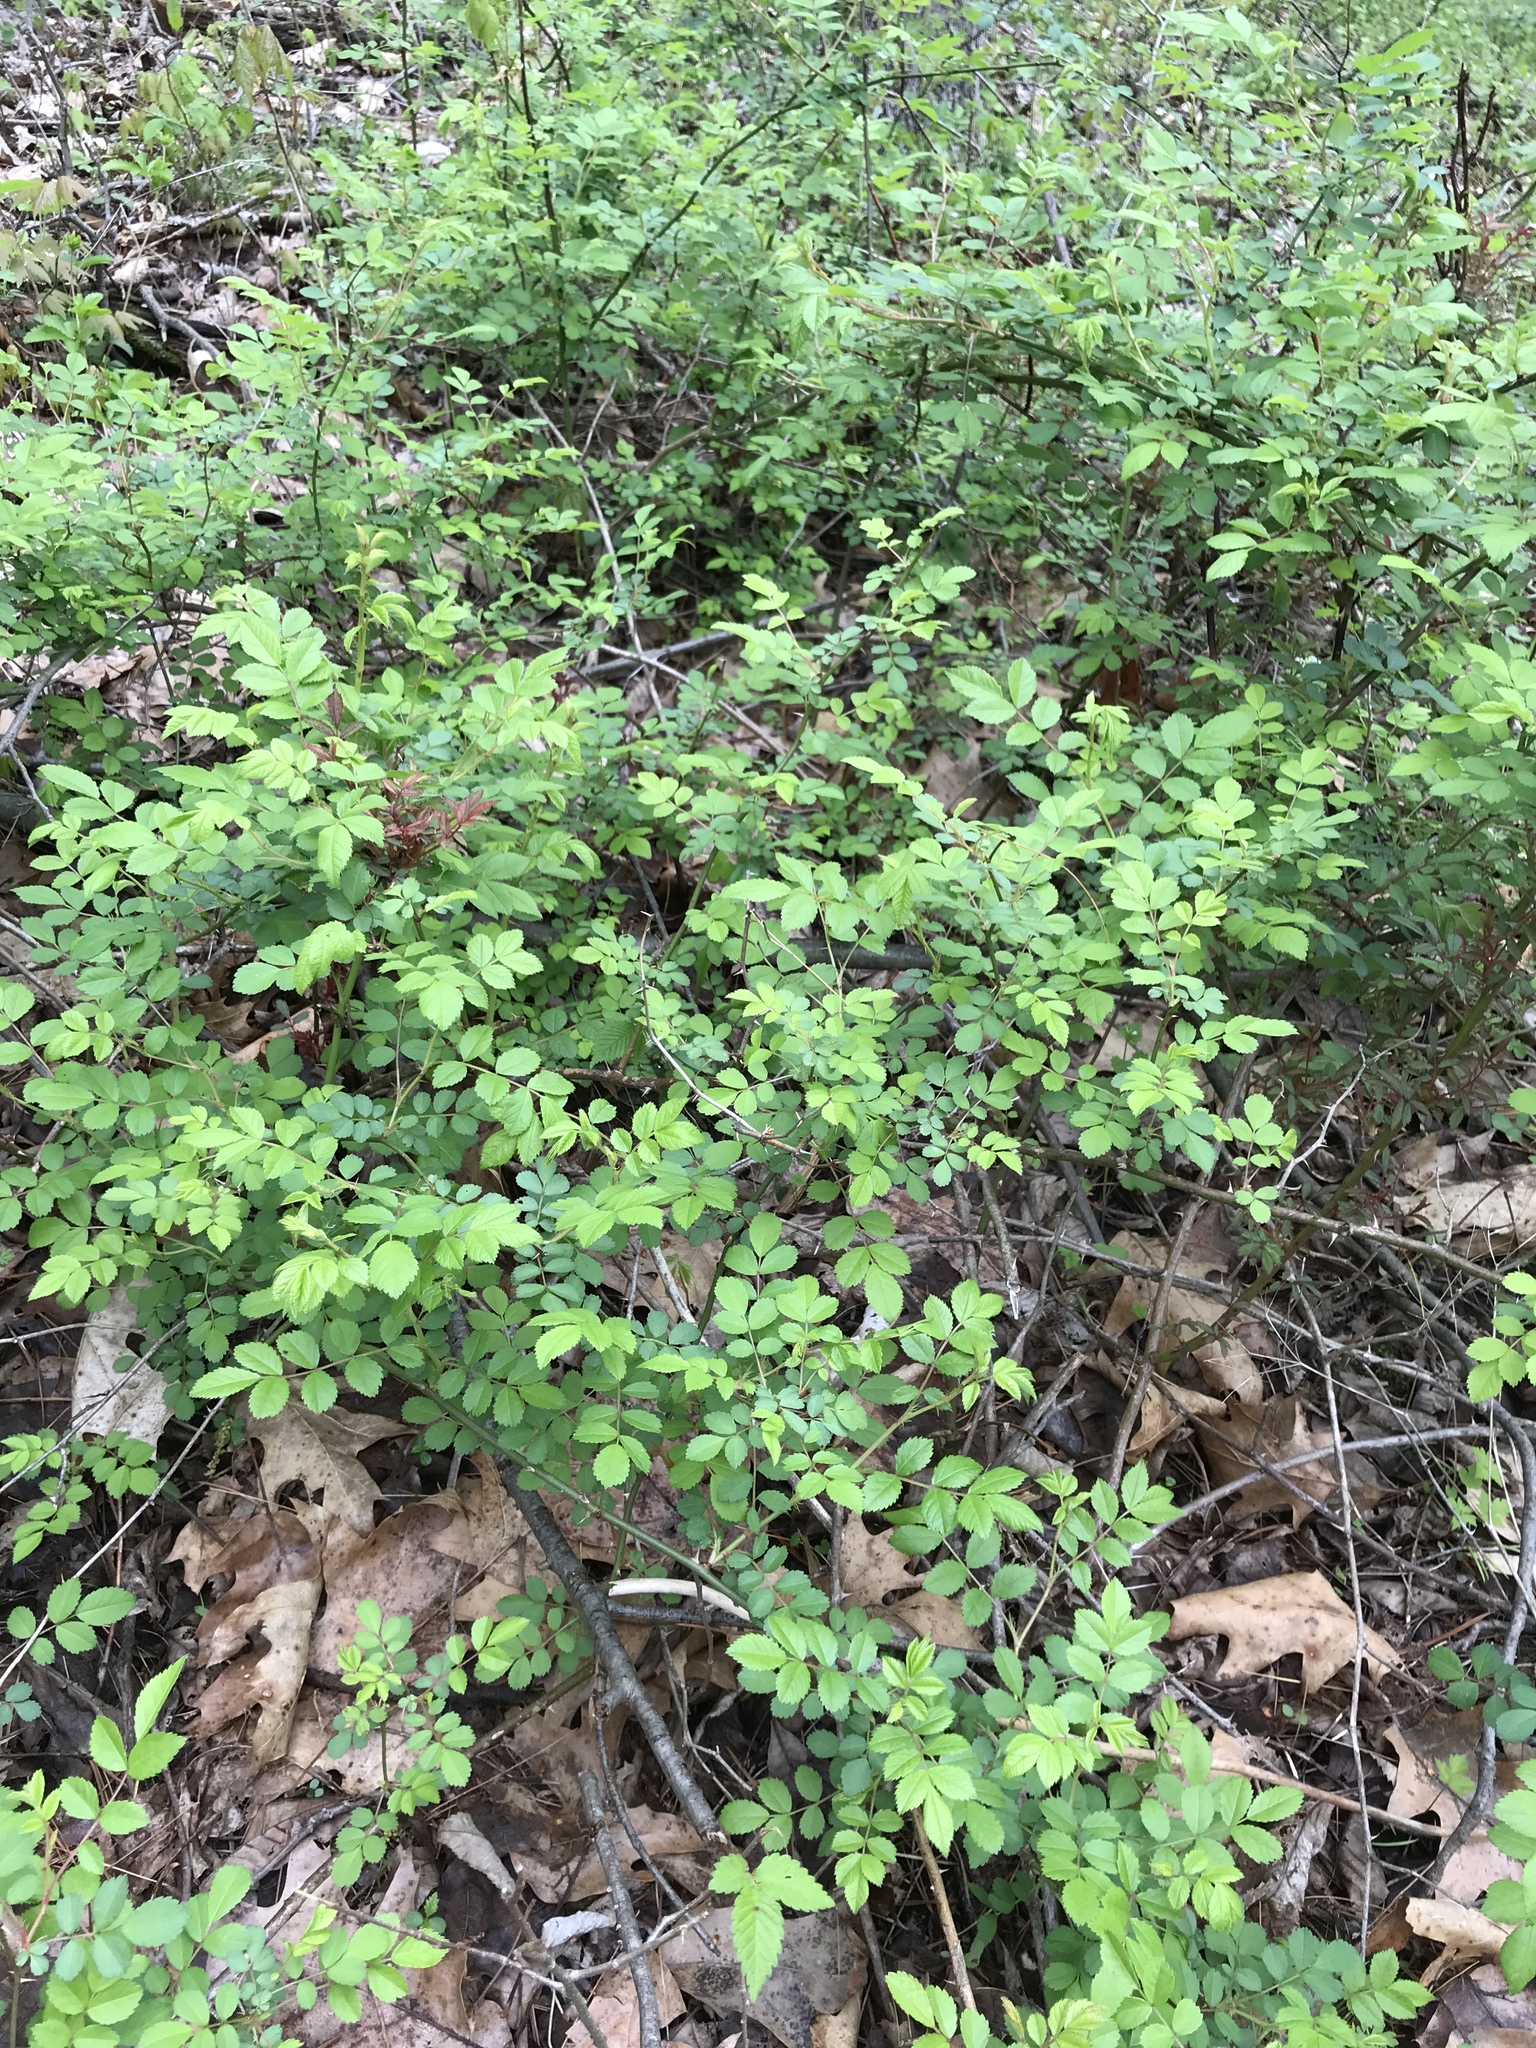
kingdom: Plantae
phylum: Tracheophyta
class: Magnoliopsida
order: Rosales
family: Rosaceae
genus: Rosa
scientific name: Rosa multiflora
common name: Multiflora rose
